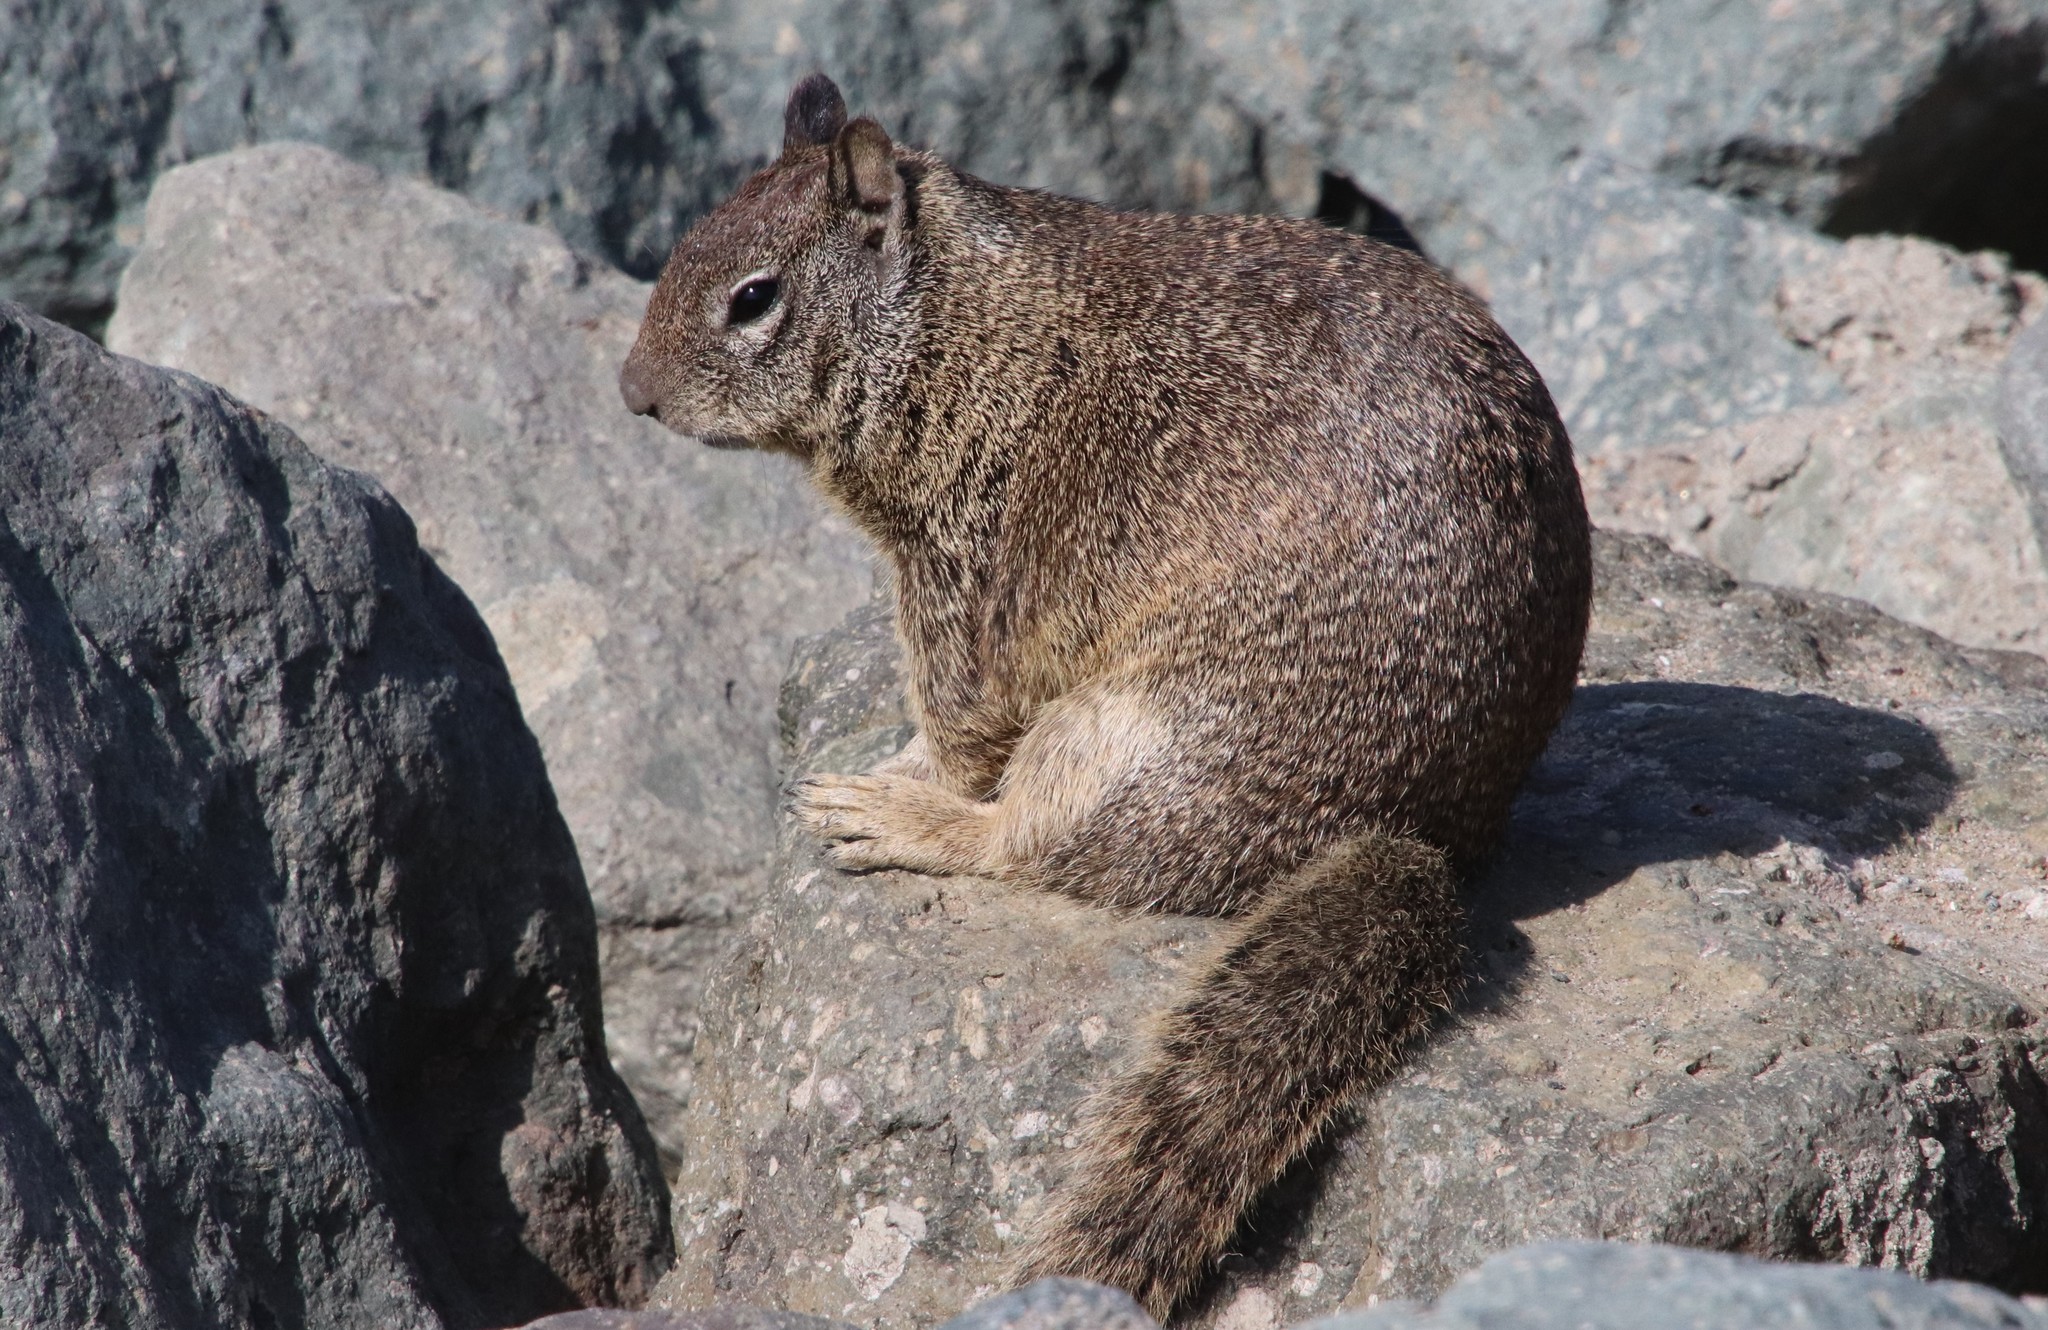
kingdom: Animalia
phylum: Chordata
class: Mammalia
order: Rodentia
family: Sciuridae
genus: Otospermophilus
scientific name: Otospermophilus beecheyi
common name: California ground squirrel
